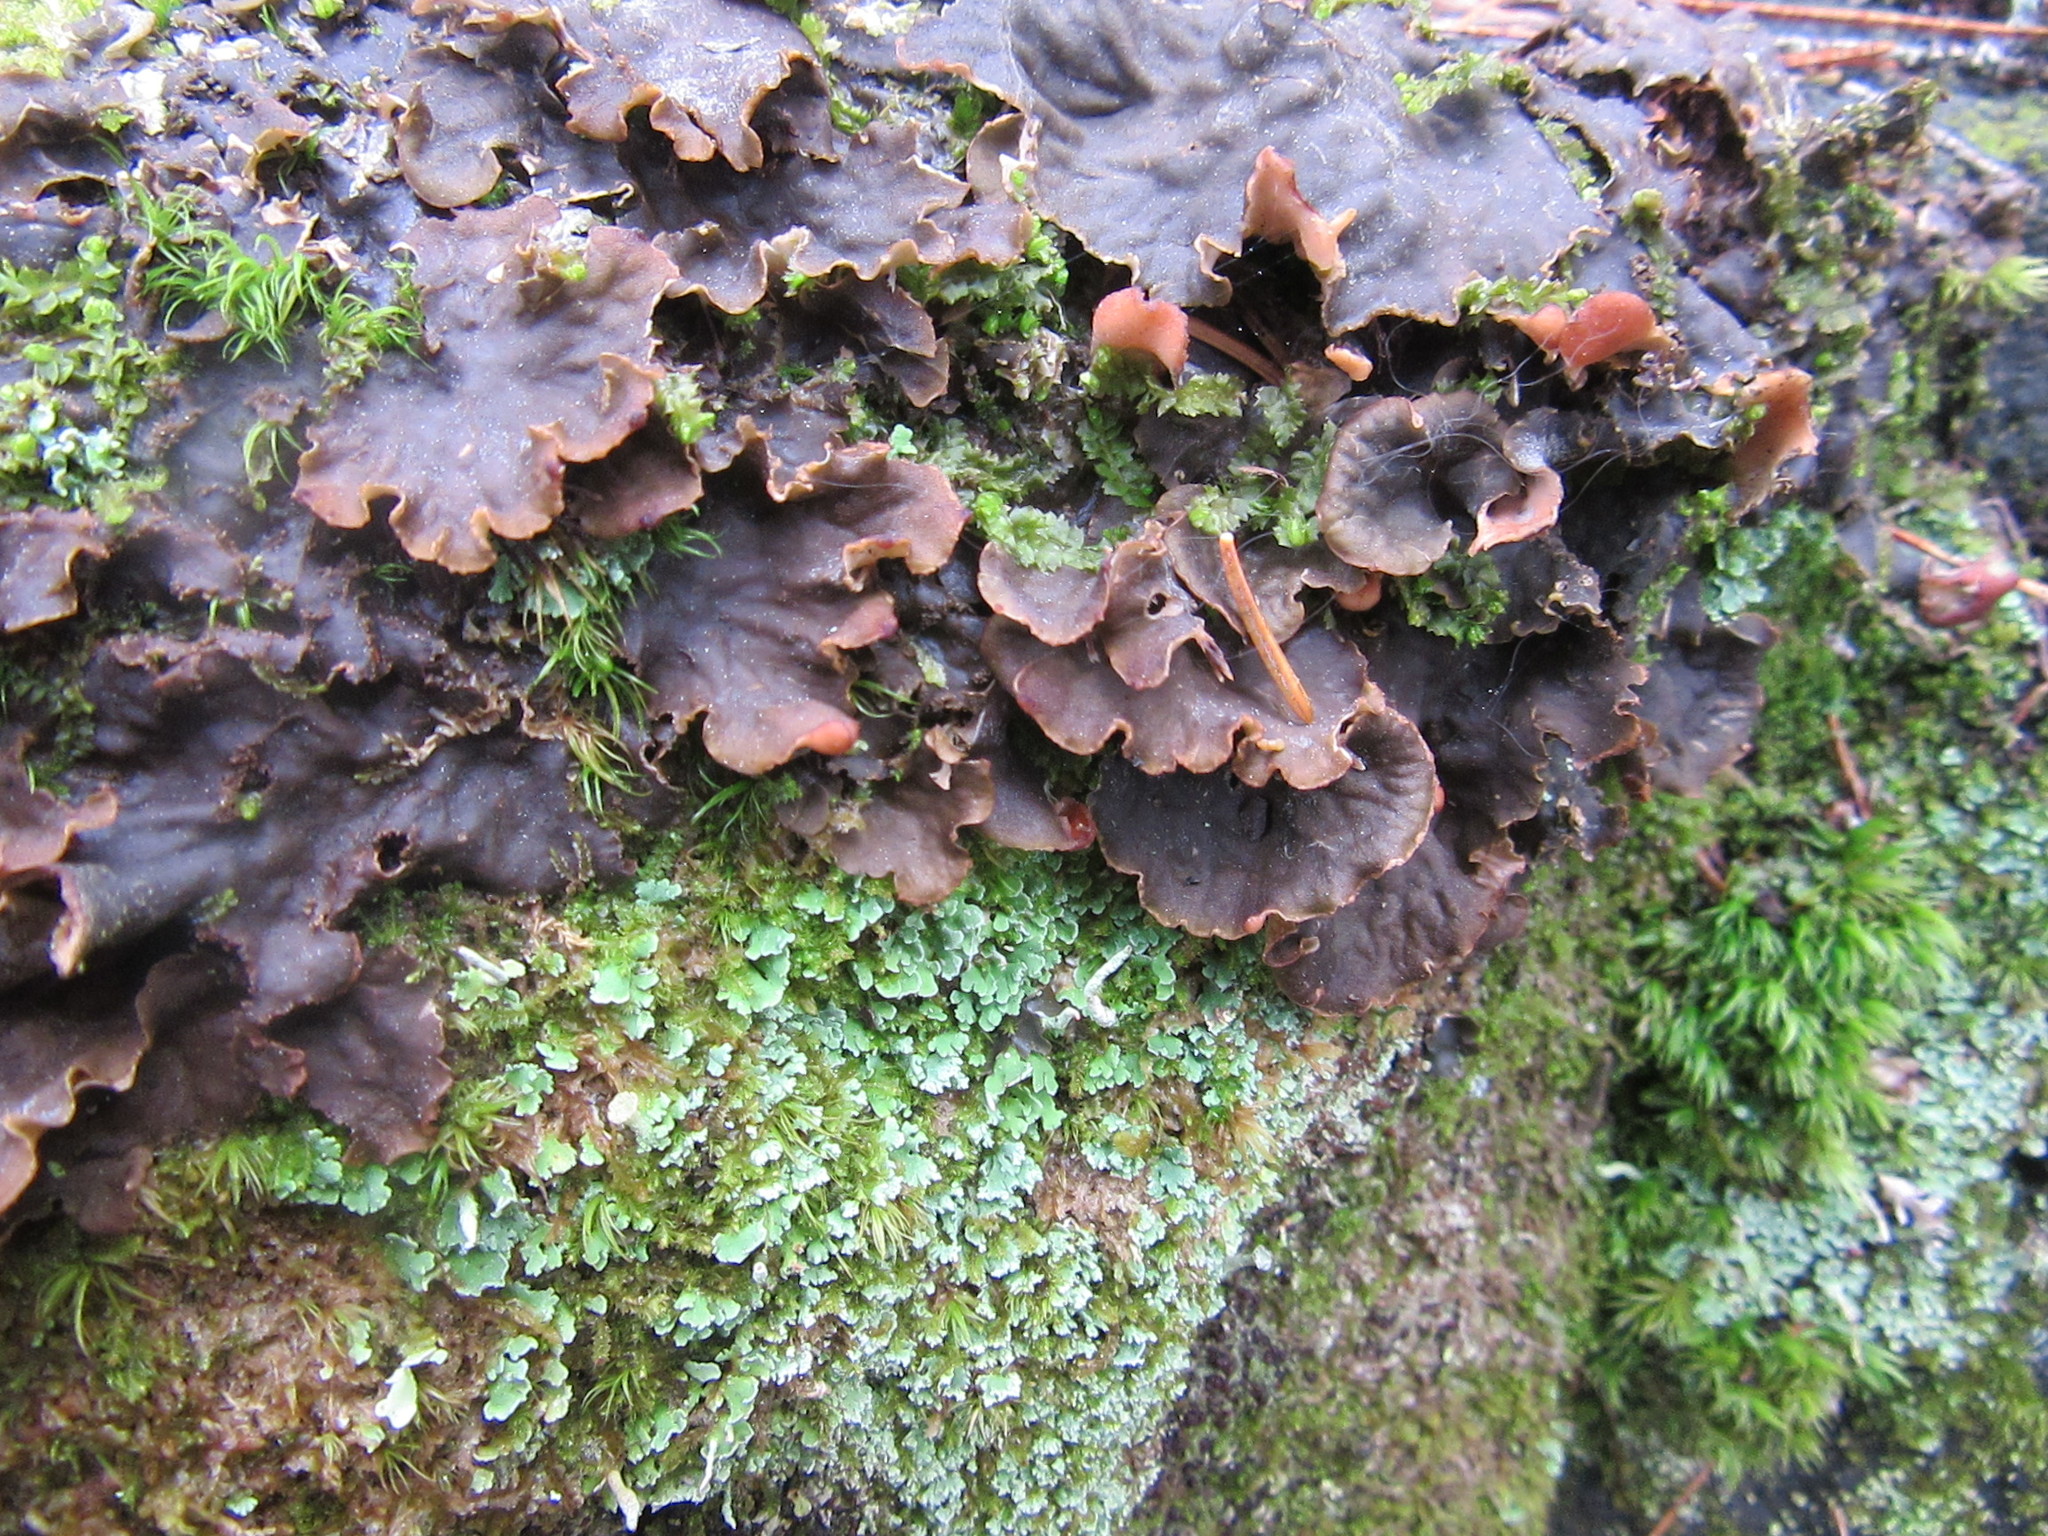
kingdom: Fungi
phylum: Ascomycota
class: Lecanoromycetes
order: Peltigerales
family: Peltigeraceae
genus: Peltigera
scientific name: Peltigera membranacea
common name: Membranous pelt lichen
